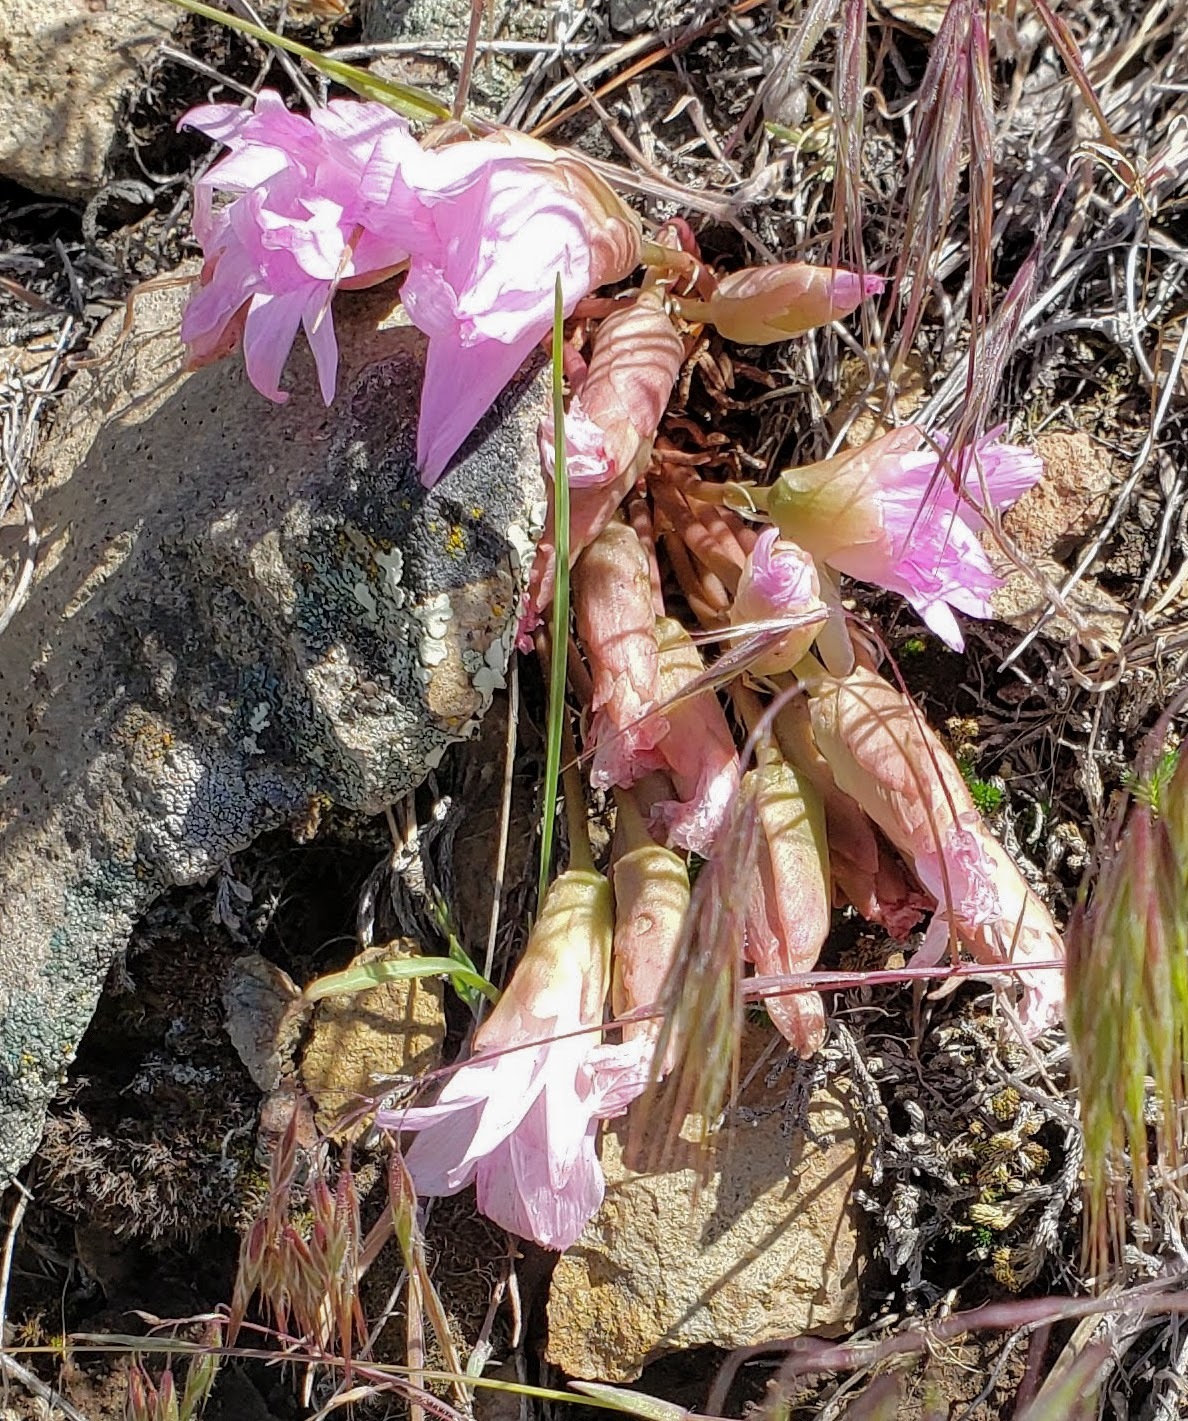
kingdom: Plantae
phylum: Tracheophyta
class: Magnoliopsida
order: Caryophyllales
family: Montiaceae
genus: Lewisia
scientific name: Lewisia rediviva
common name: Bitter-root
